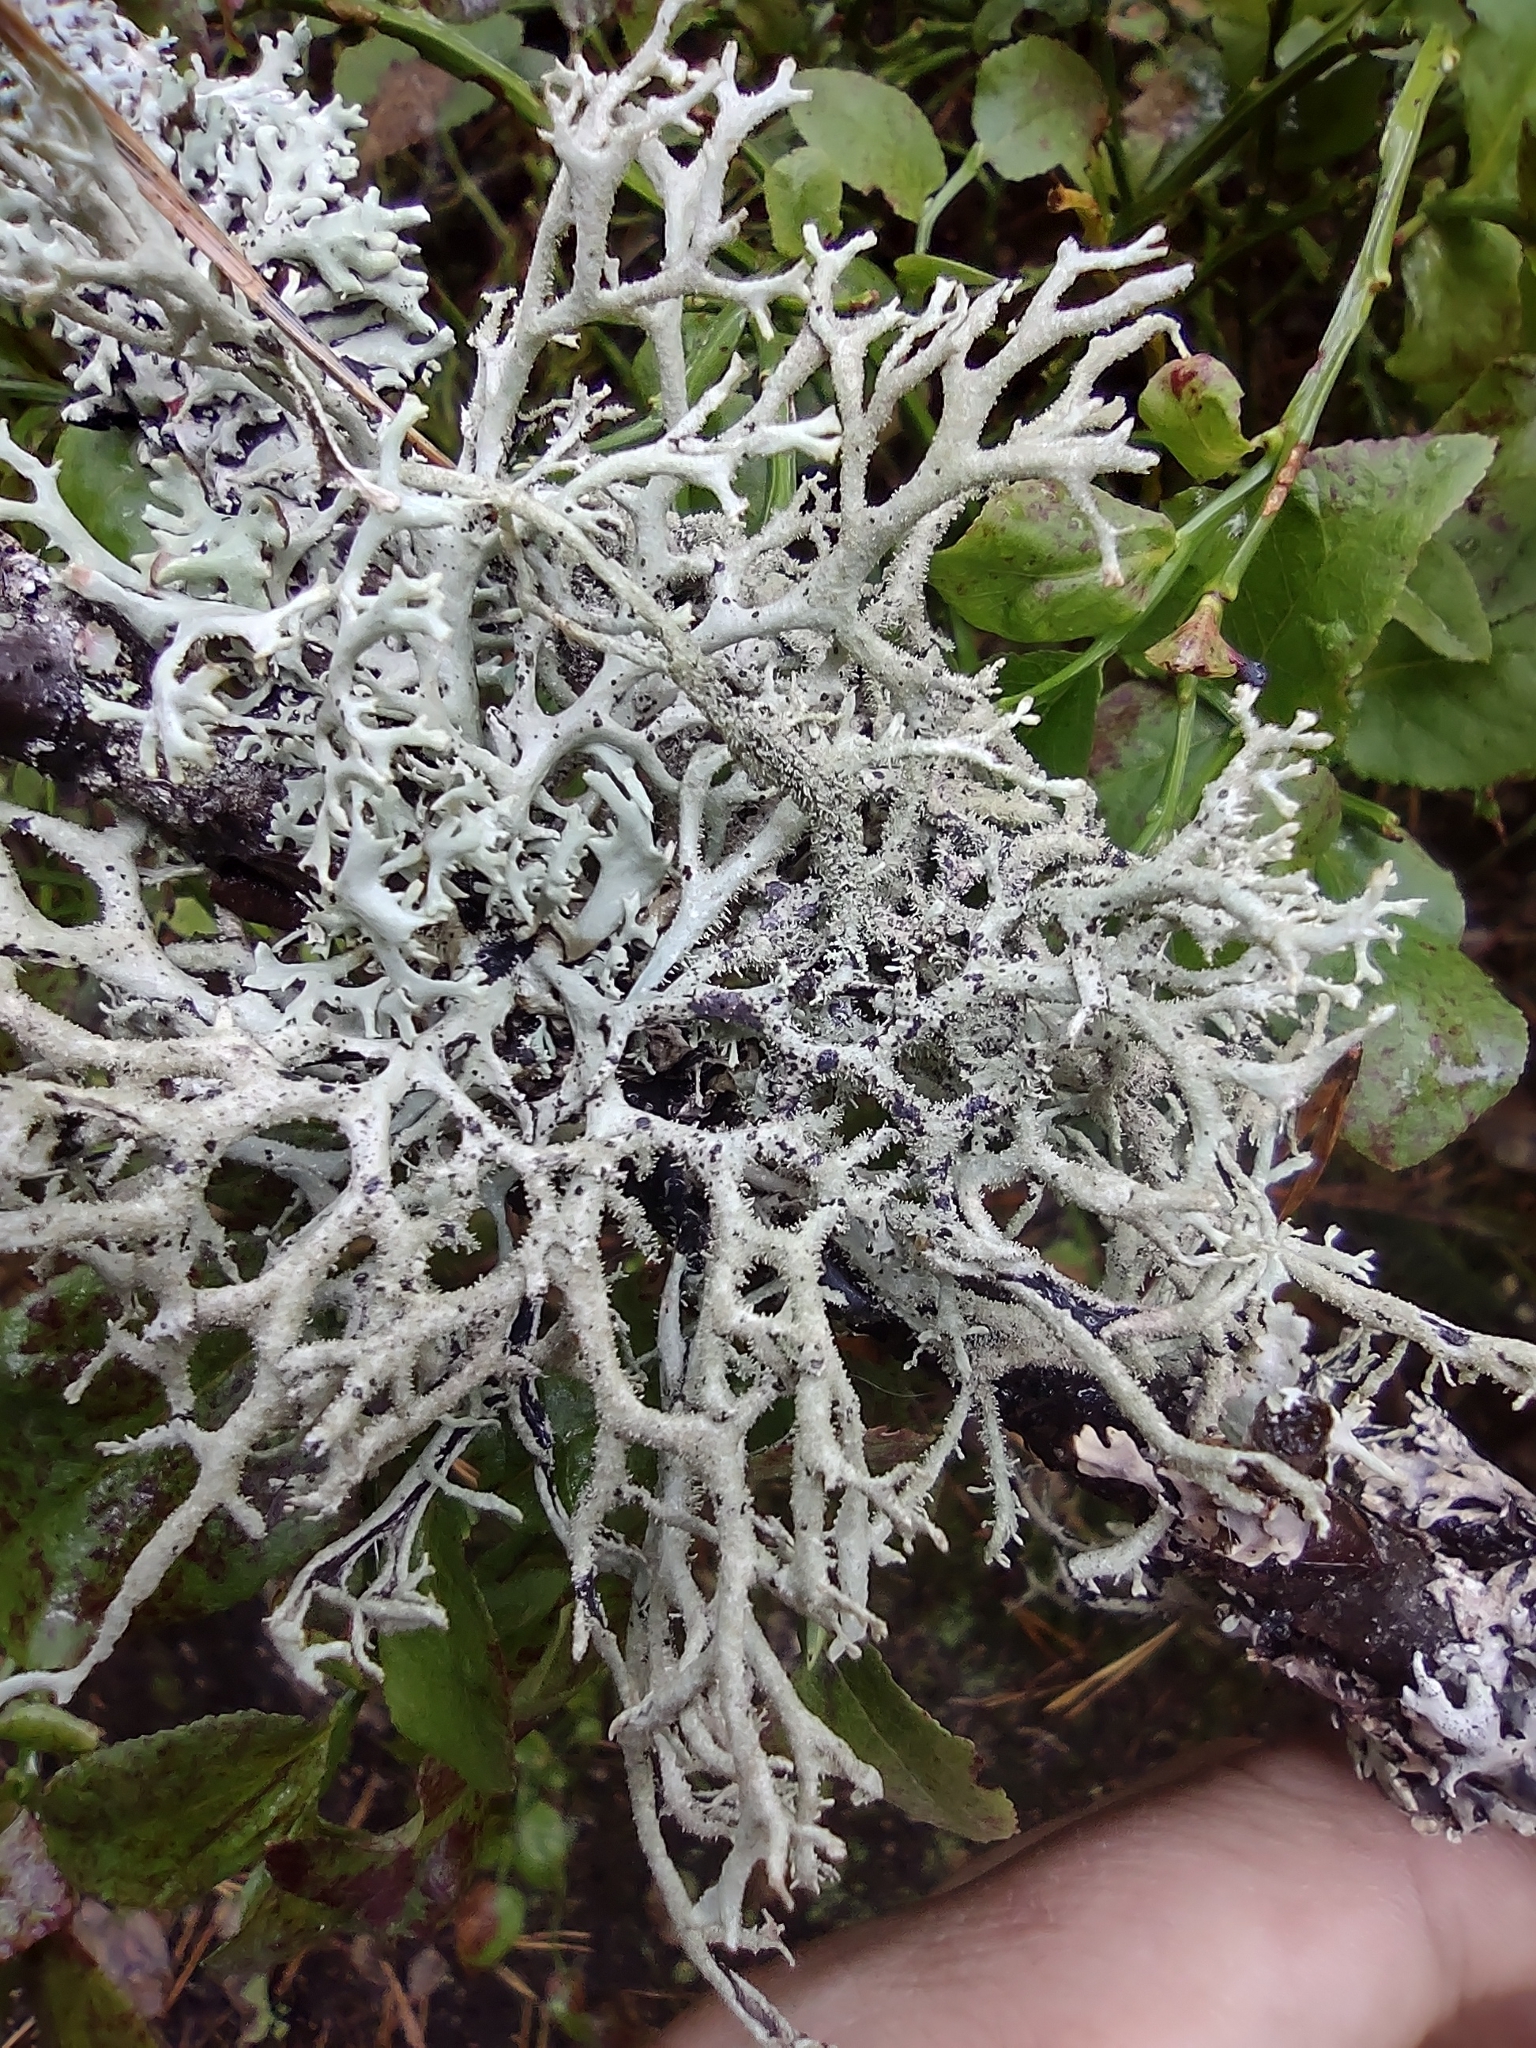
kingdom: Fungi
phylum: Ascomycota
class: Lecanoromycetes
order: Lecanorales
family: Parmeliaceae
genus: Pseudevernia
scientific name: Pseudevernia furfuracea
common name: Tree moss
